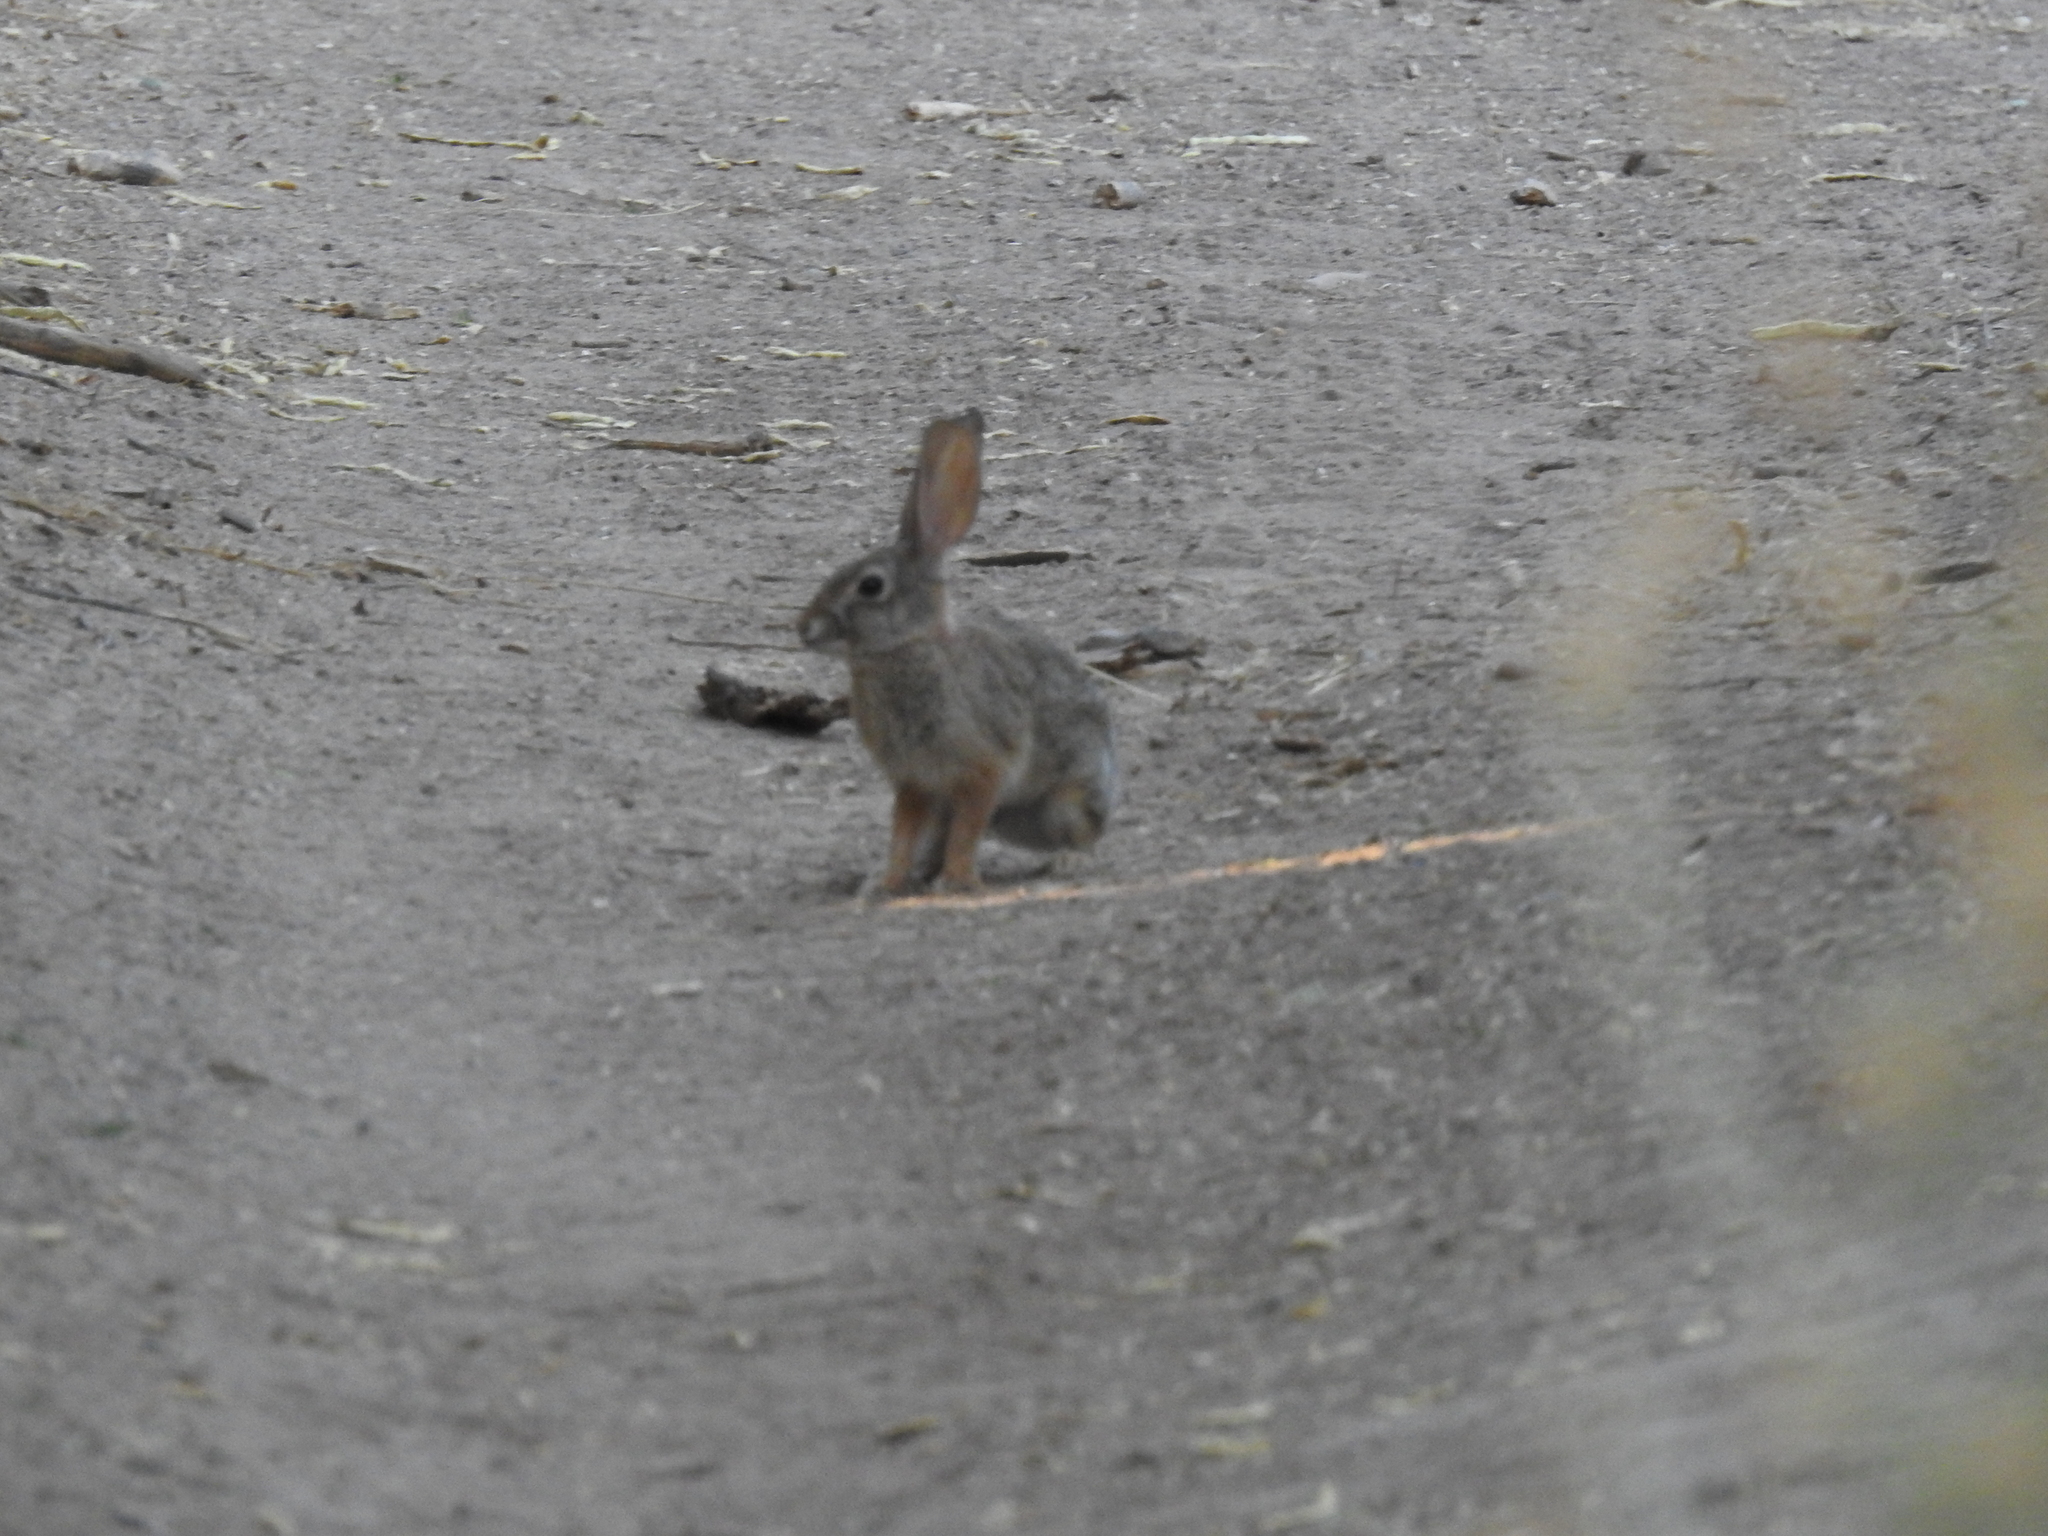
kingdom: Animalia
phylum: Chordata
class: Mammalia
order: Lagomorpha
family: Leporidae
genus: Sylvilagus
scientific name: Sylvilagus audubonii
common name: Desert cottontail
